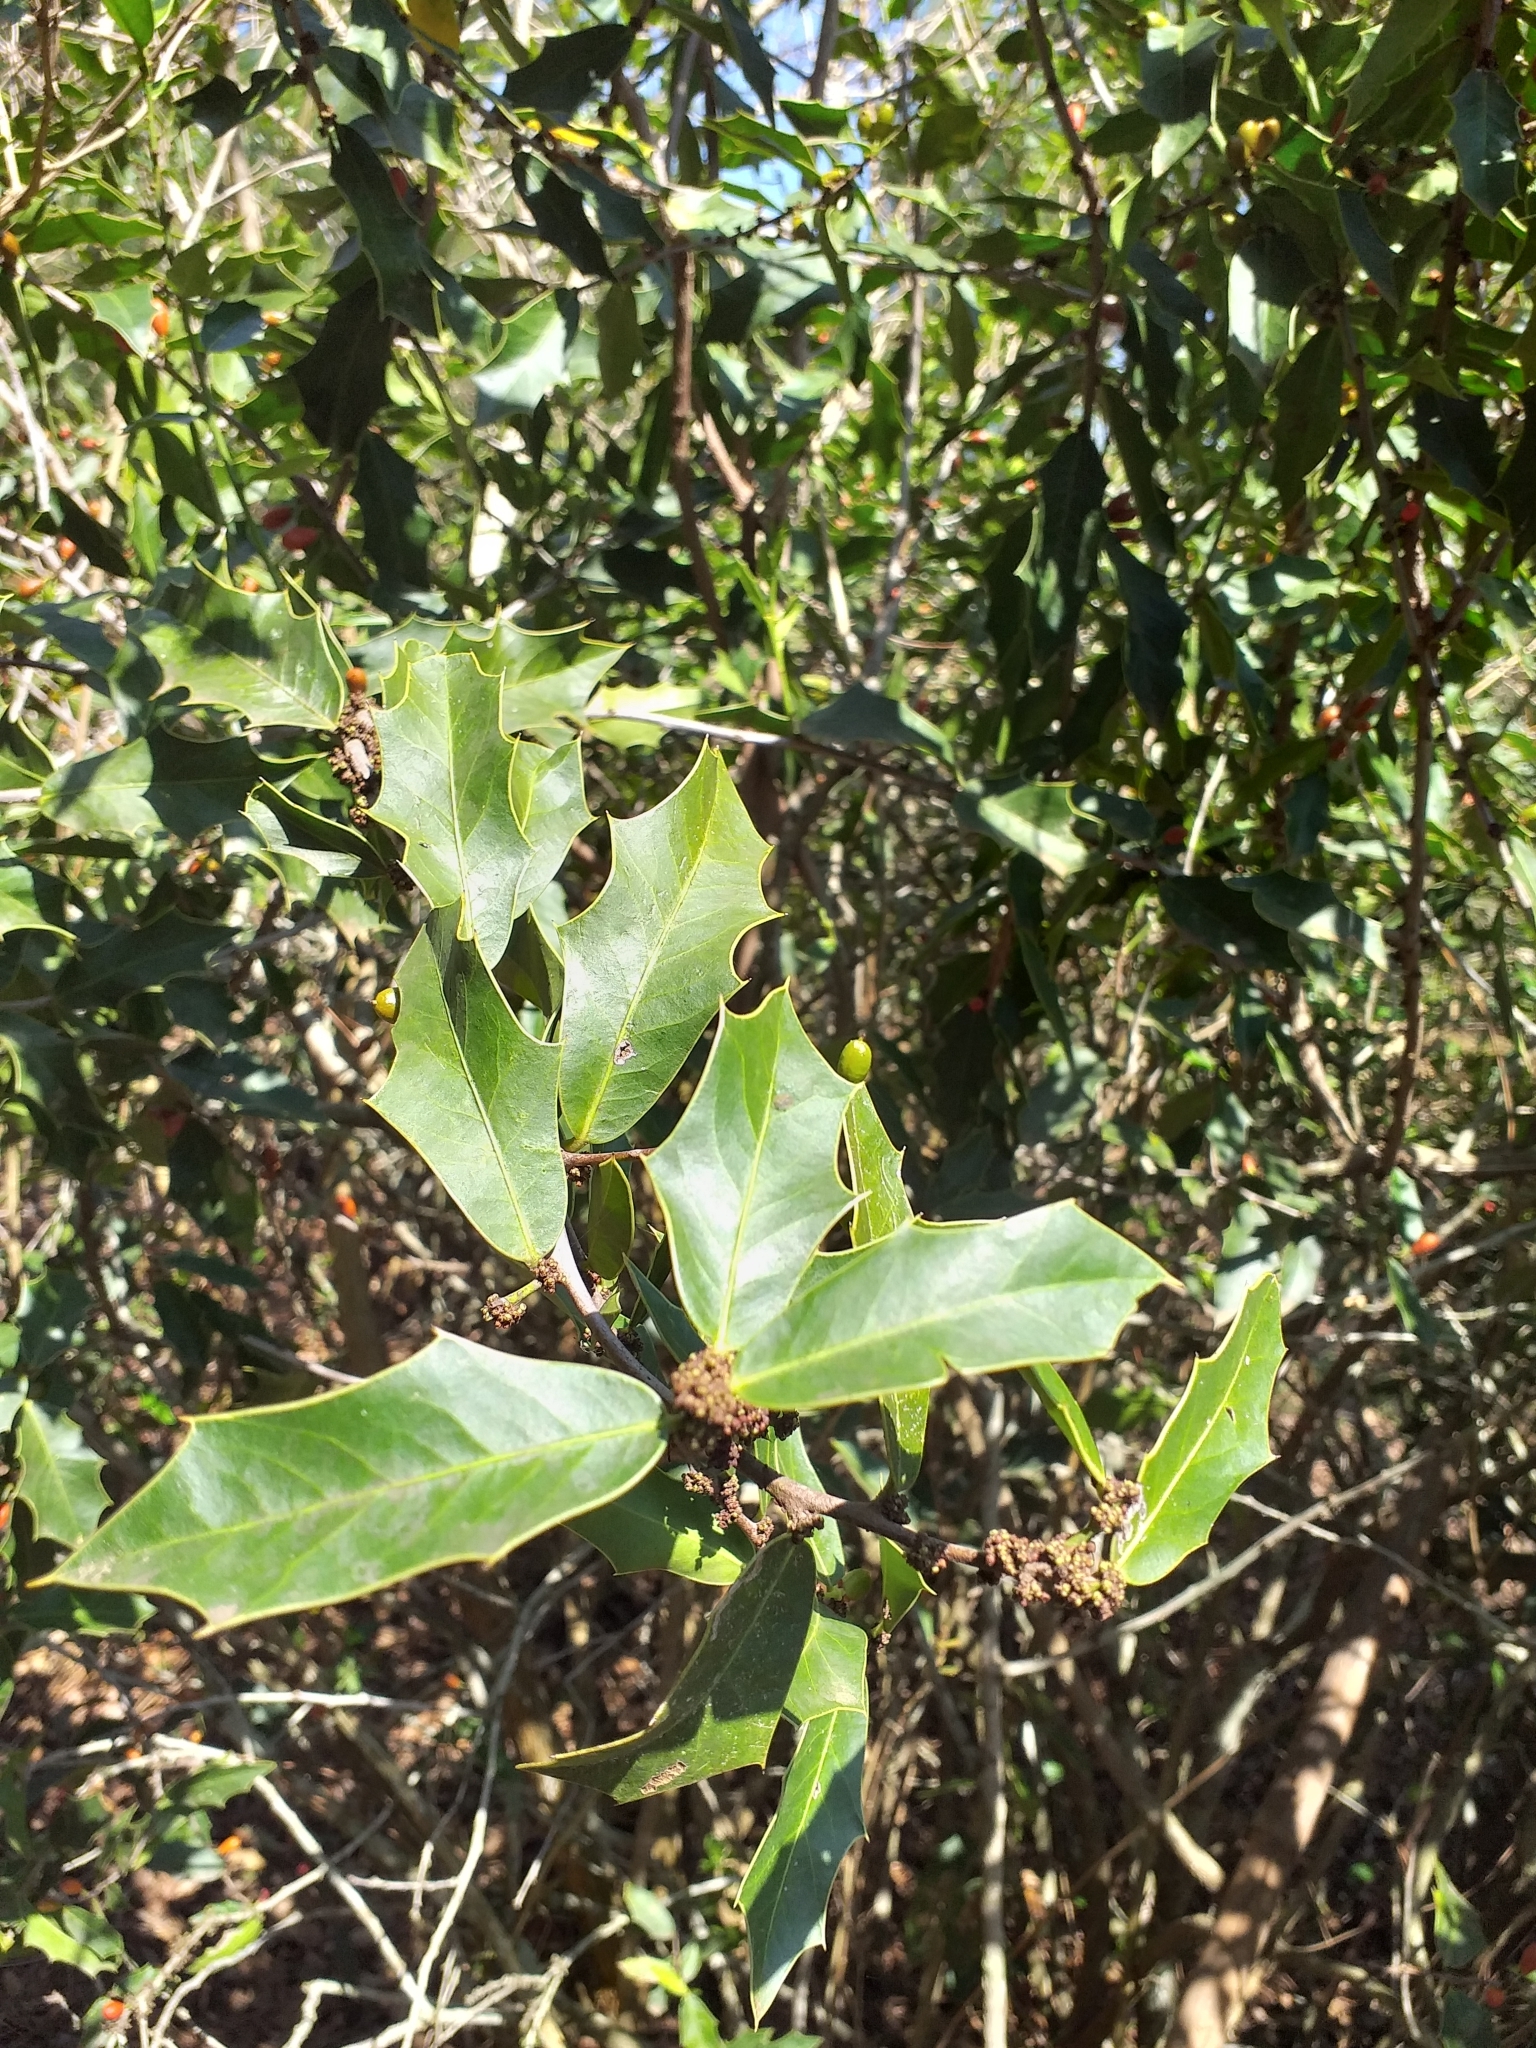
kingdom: Plantae
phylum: Tracheophyta
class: Magnoliopsida
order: Celastrales
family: Celastraceae
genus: Monteverdia
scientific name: Monteverdia
